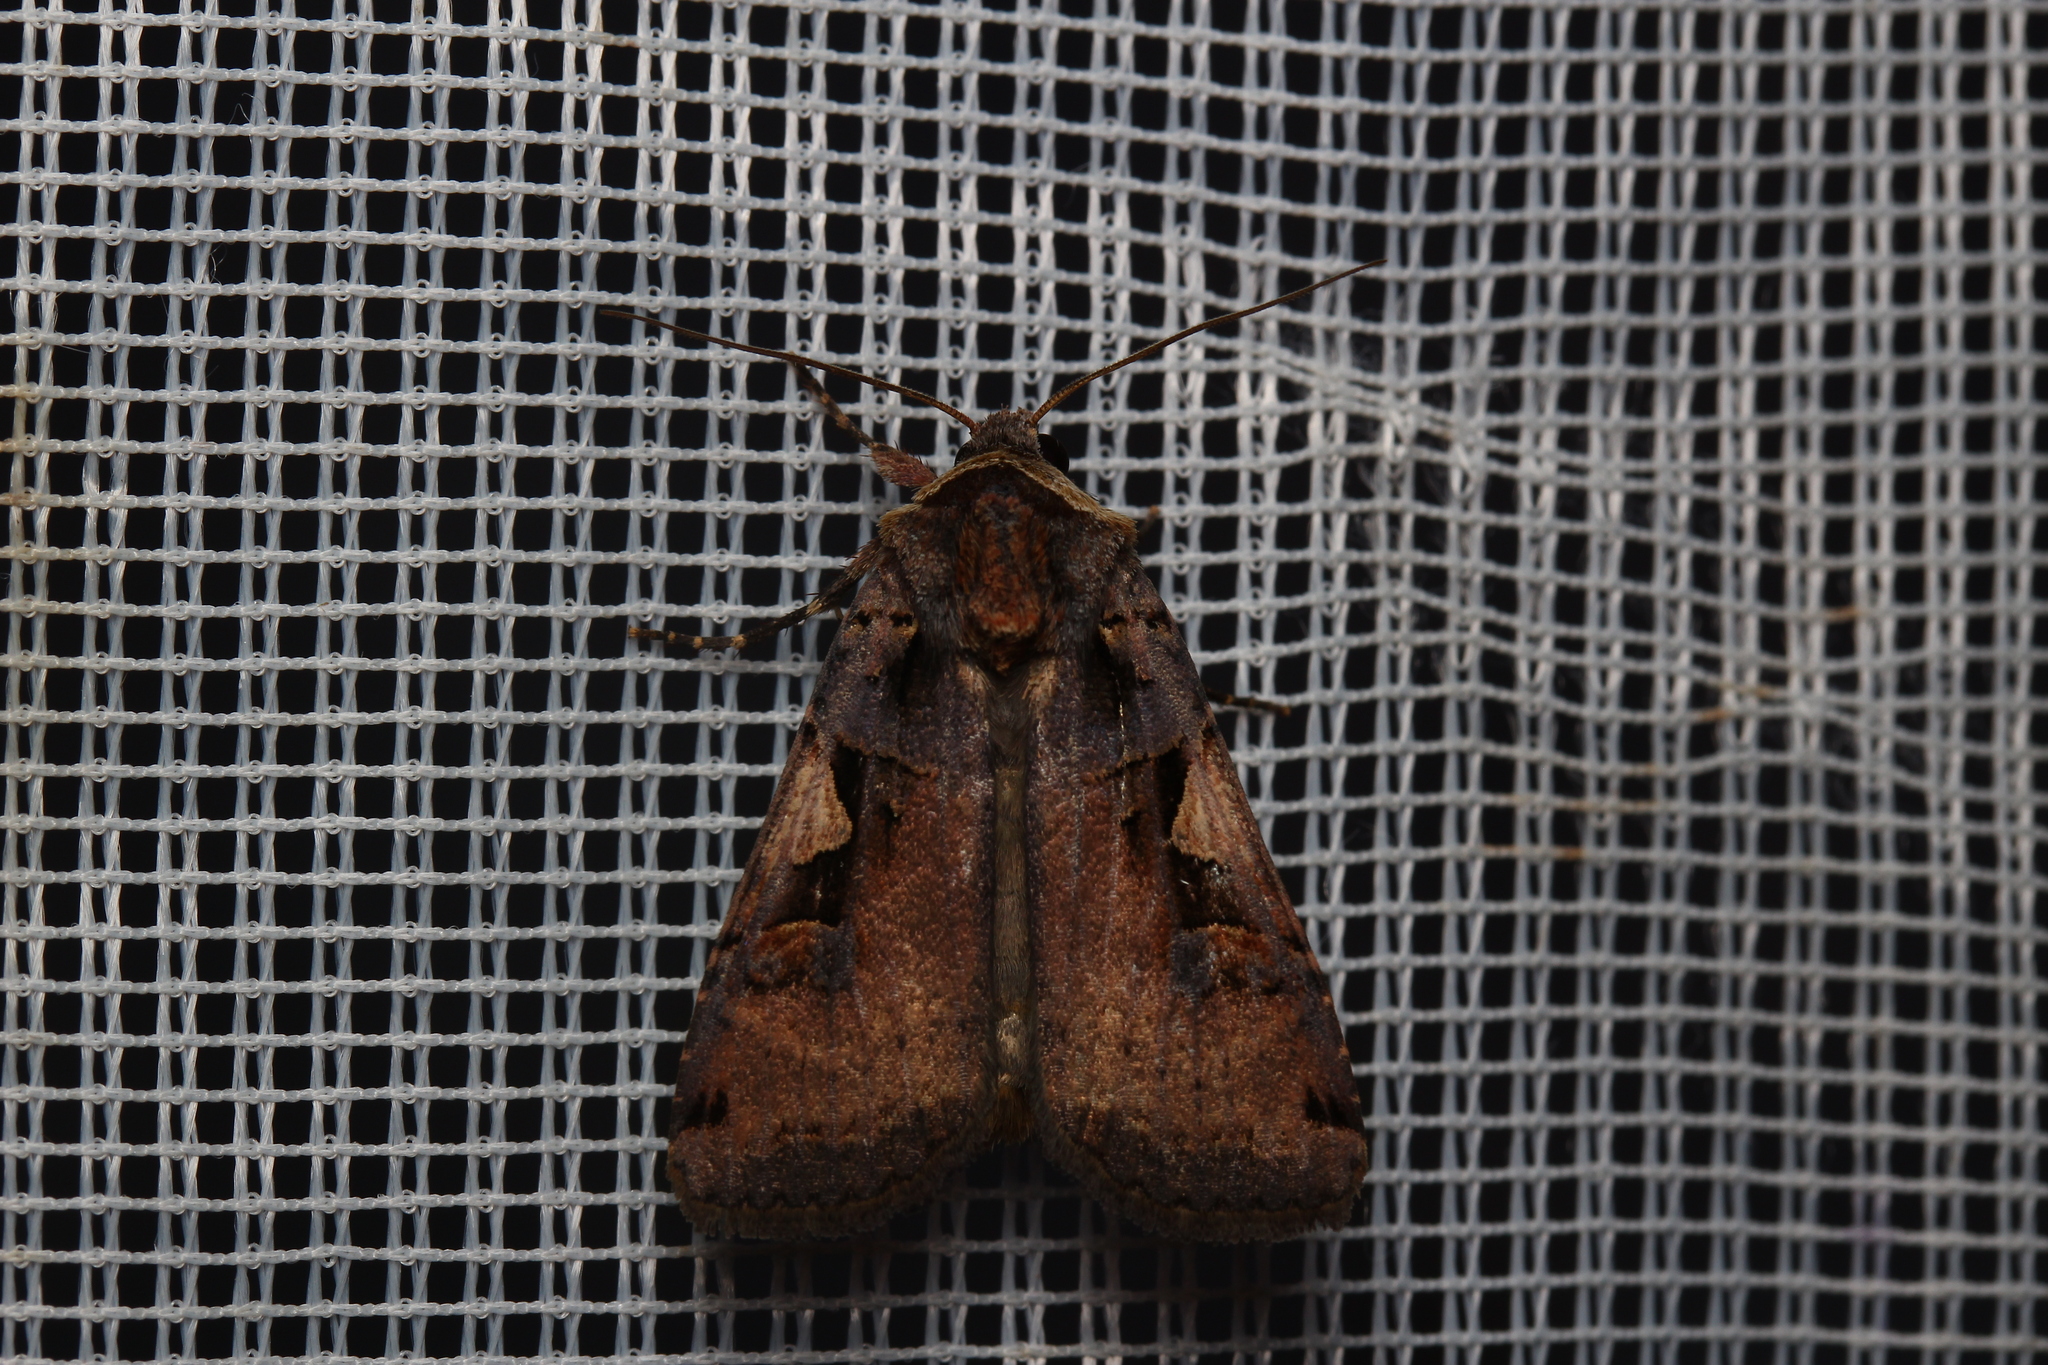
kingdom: Animalia
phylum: Arthropoda
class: Insecta
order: Lepidoptera
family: Noctuidae
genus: Xestia
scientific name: Xestia c-nigrum
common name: Setaceous hebrew character
